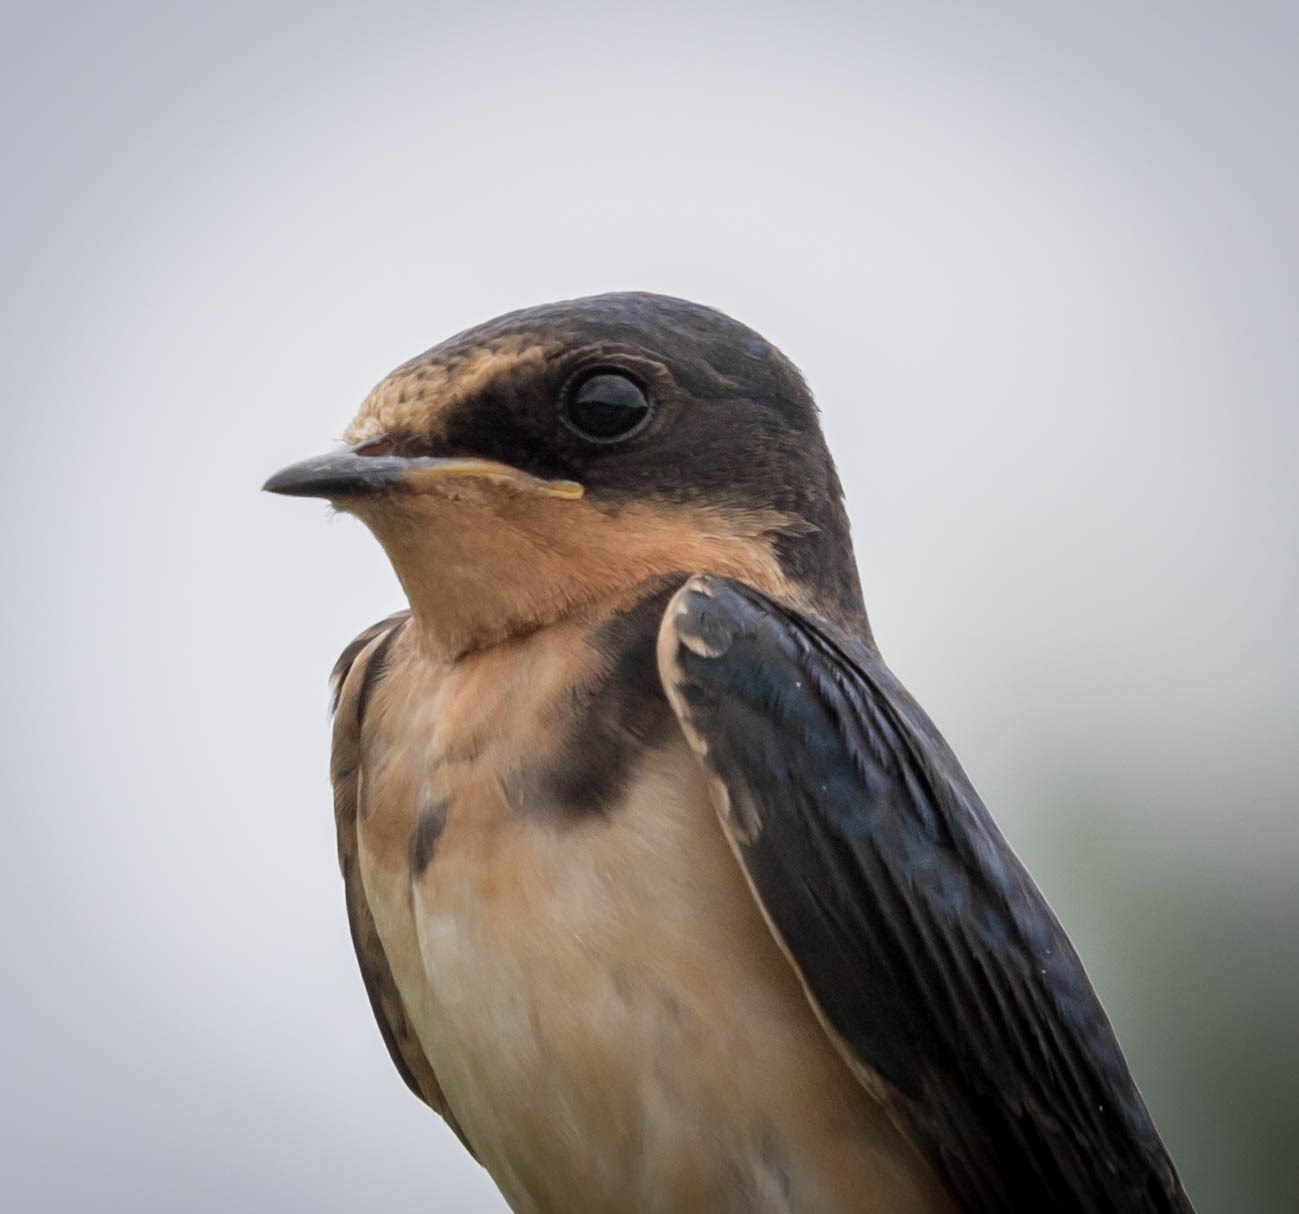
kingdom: Animalia
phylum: Chordata
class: Aves
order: Passeriformes
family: Hirundinidae
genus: Hirundo
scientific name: Hirundo rustica
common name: Barn swallow
